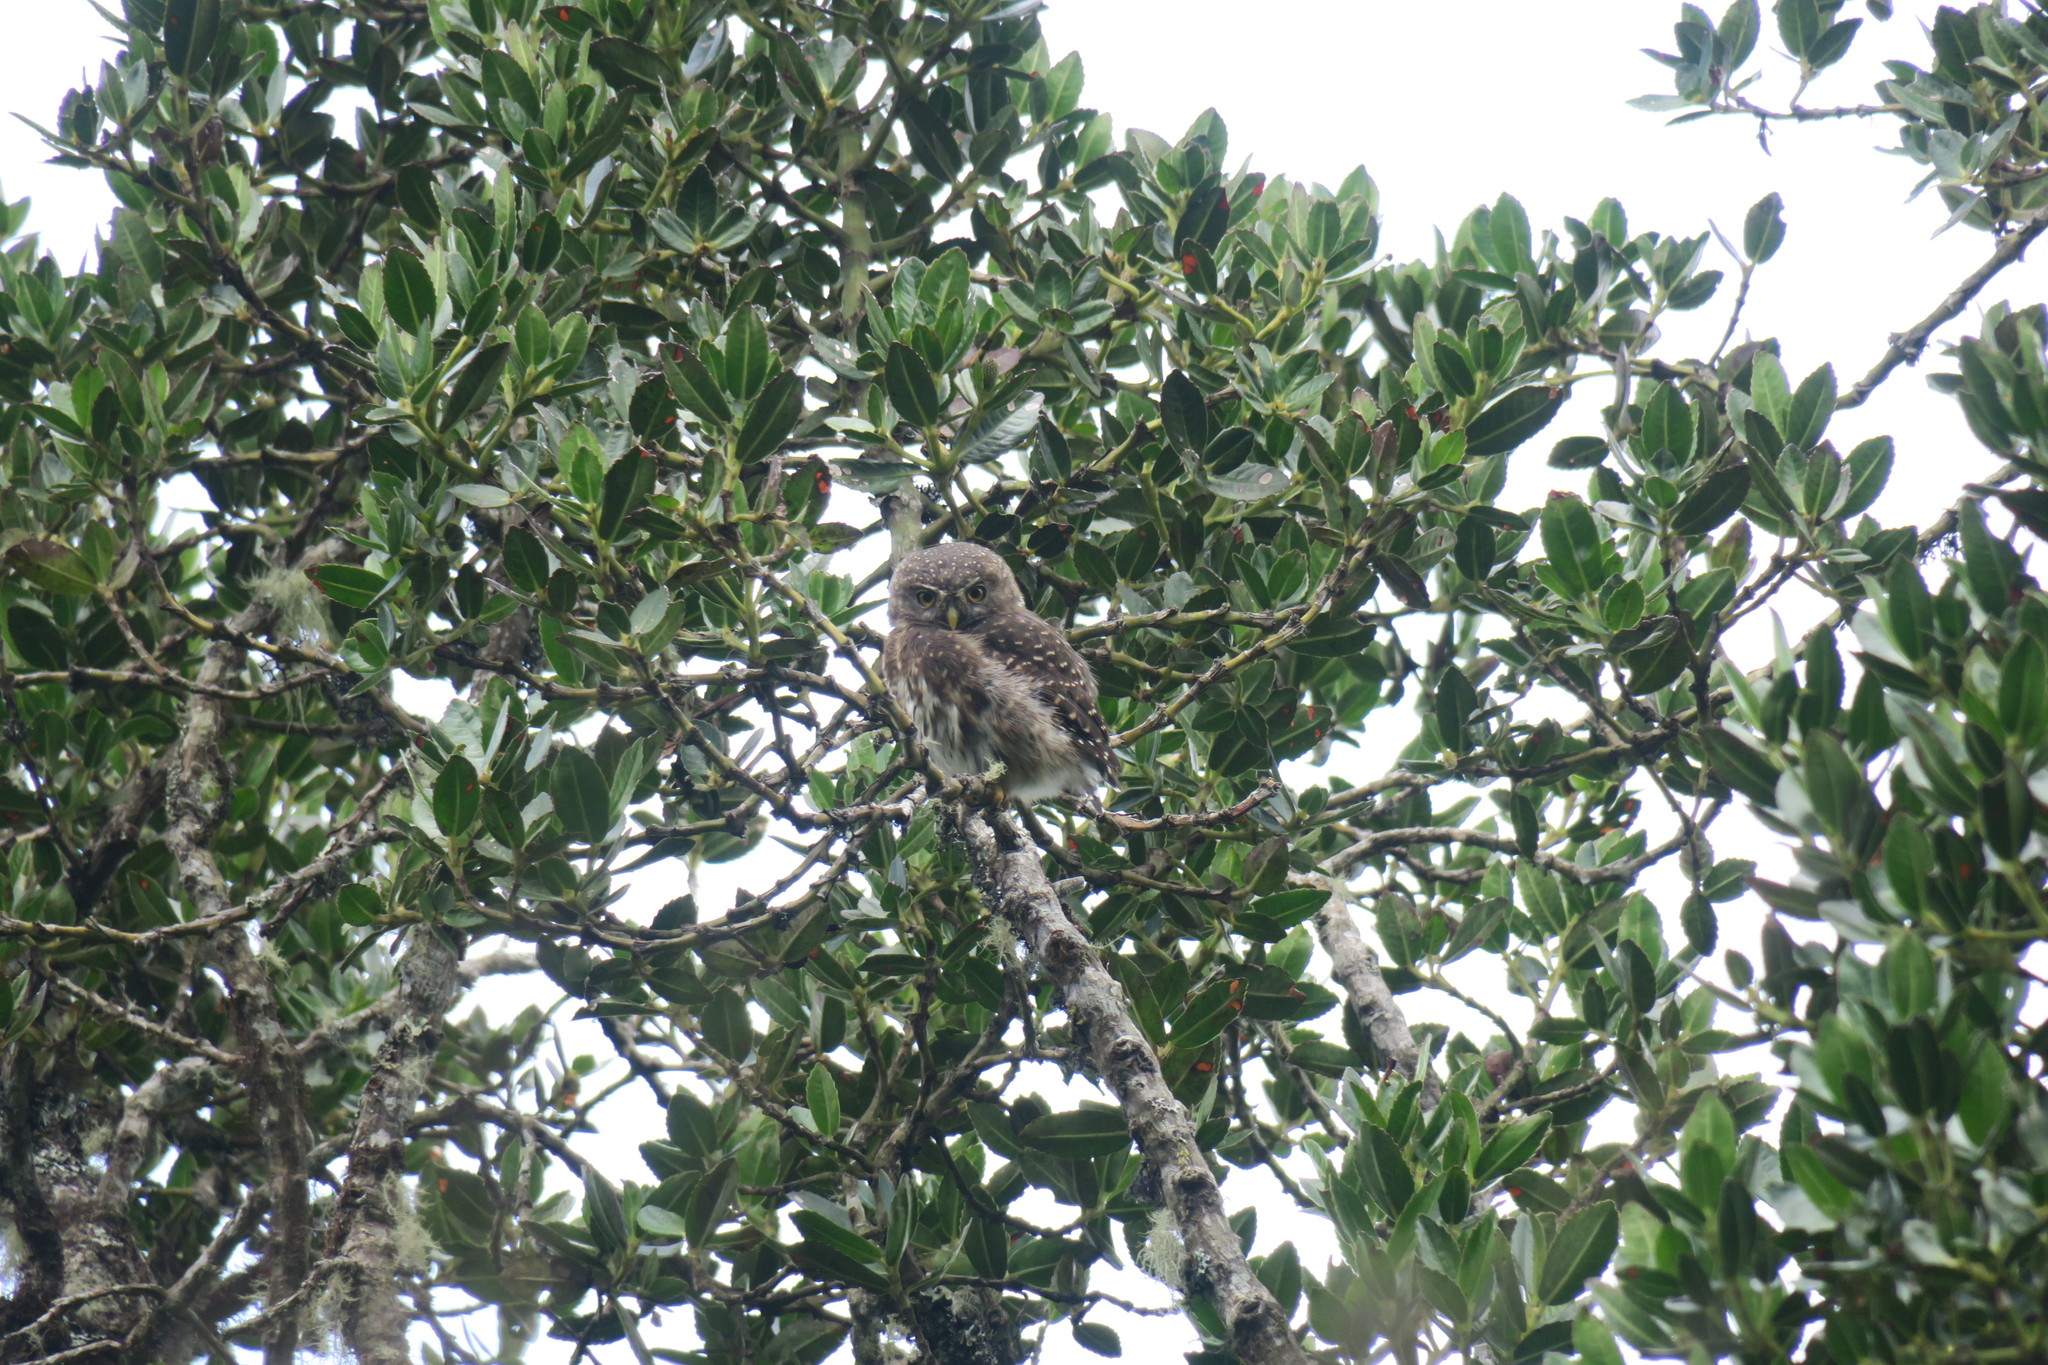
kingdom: Animalia
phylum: Chordata
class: Aves
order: Strigiformes
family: Strigidae
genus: Glaucidium
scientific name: Glaucidium jardinii
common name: Andean pygmy owl
